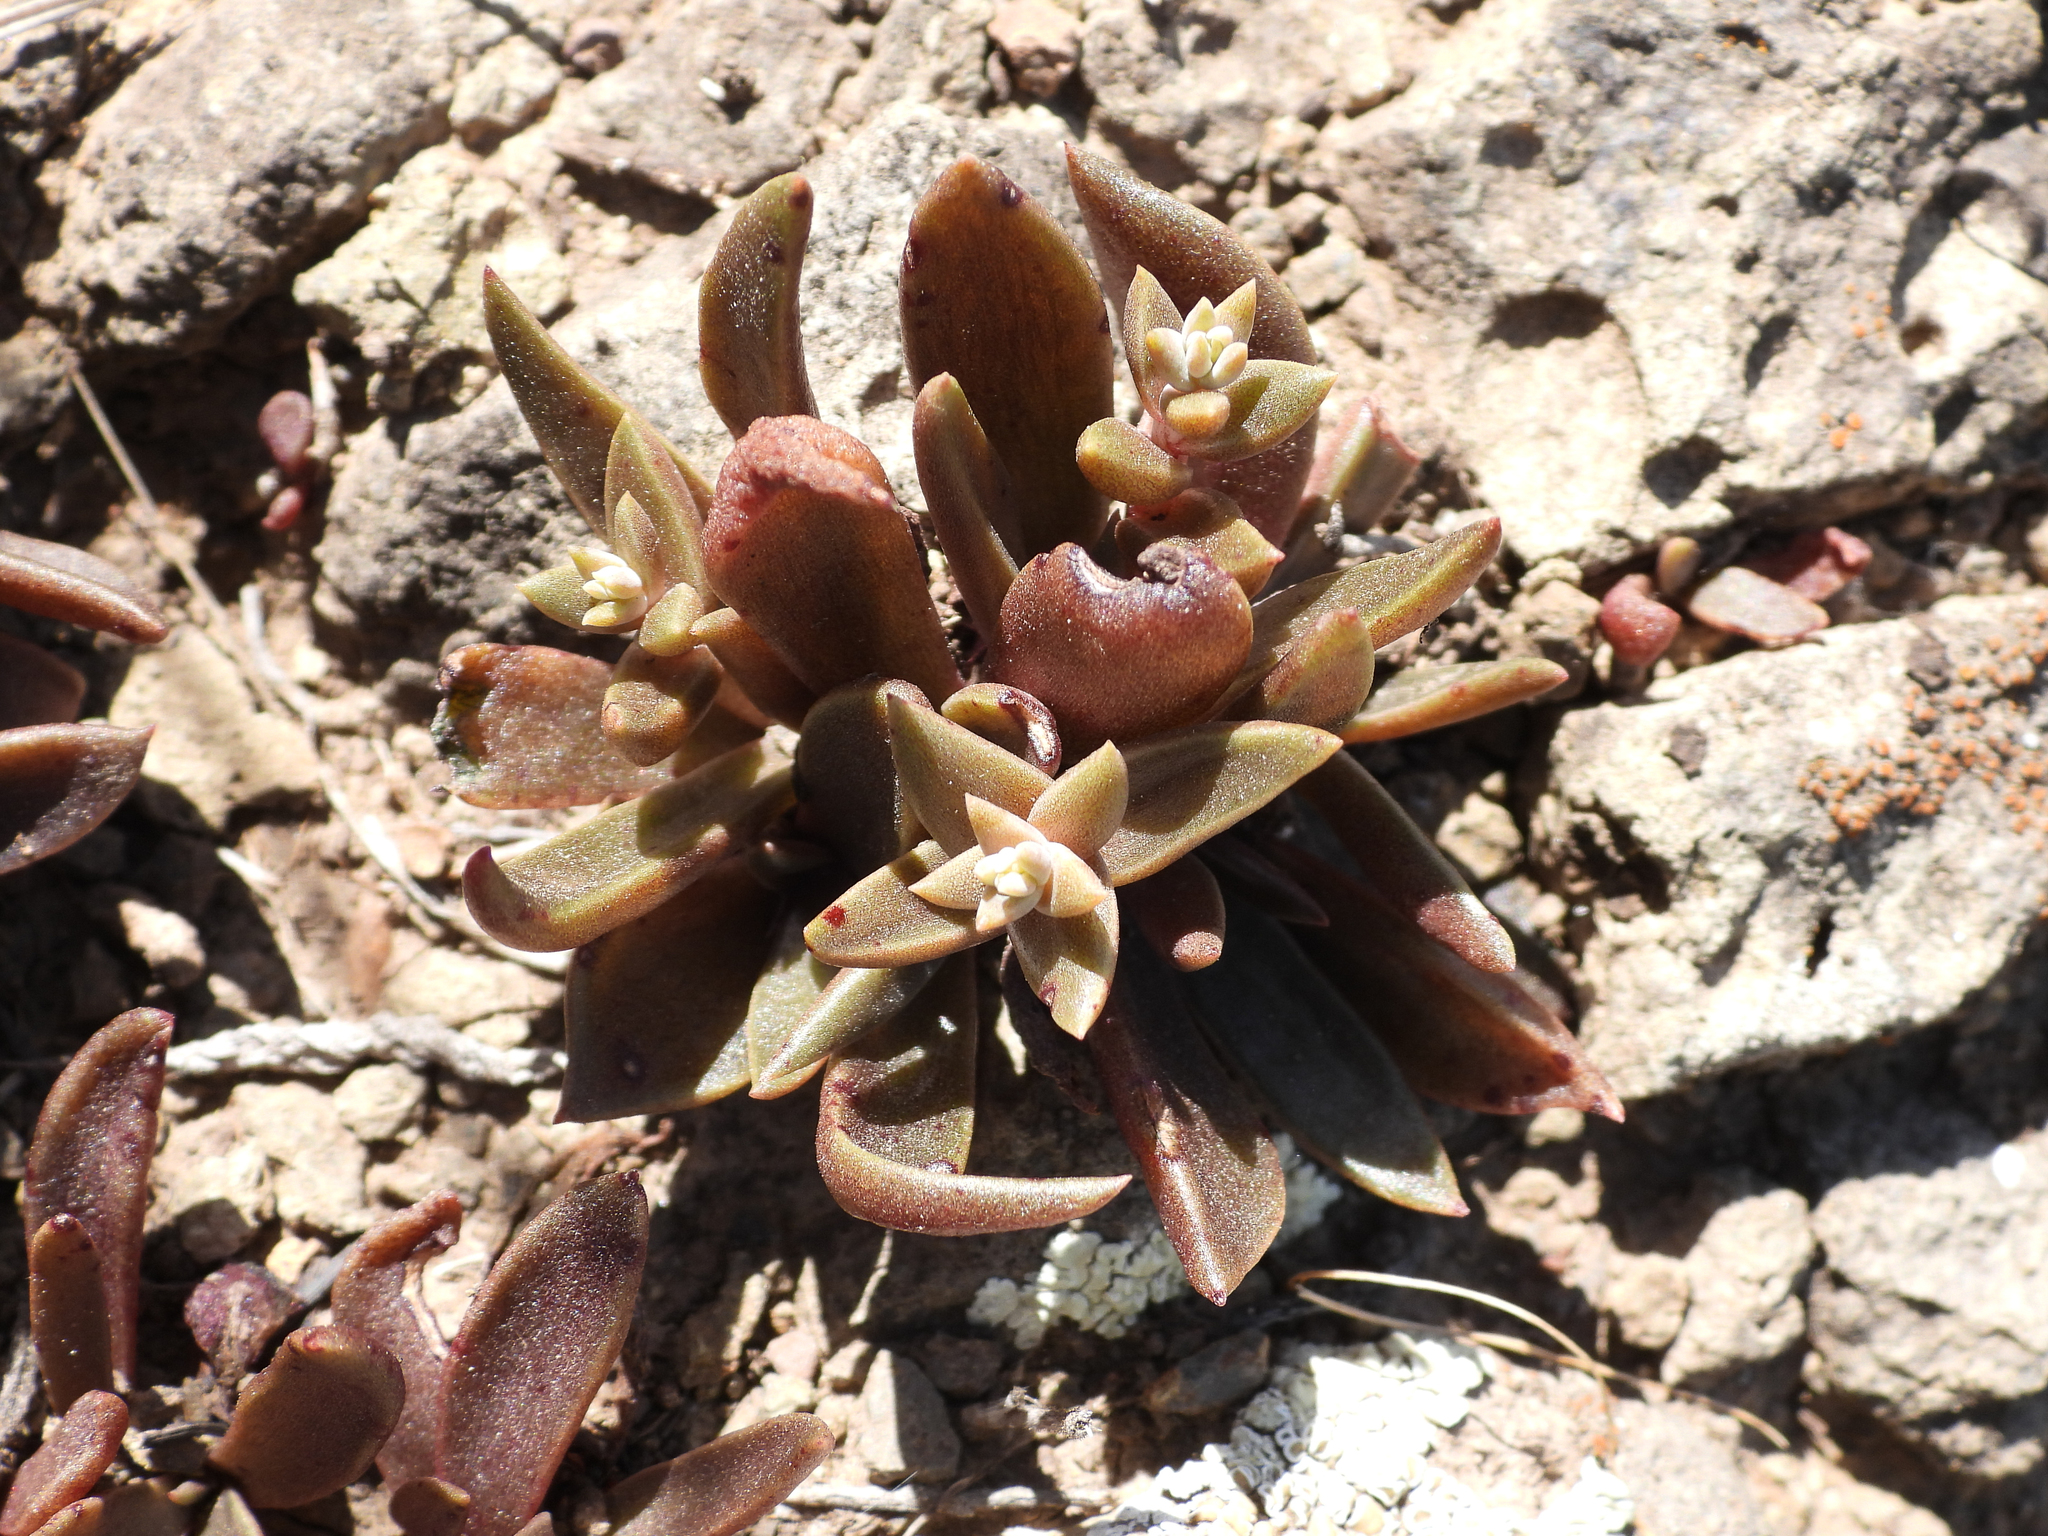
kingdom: Plantae
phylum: Tracheophyta
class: Magnoliopsida
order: Saxifragales
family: Crassulaceae
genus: Dudleya
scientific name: Dudleya parva
